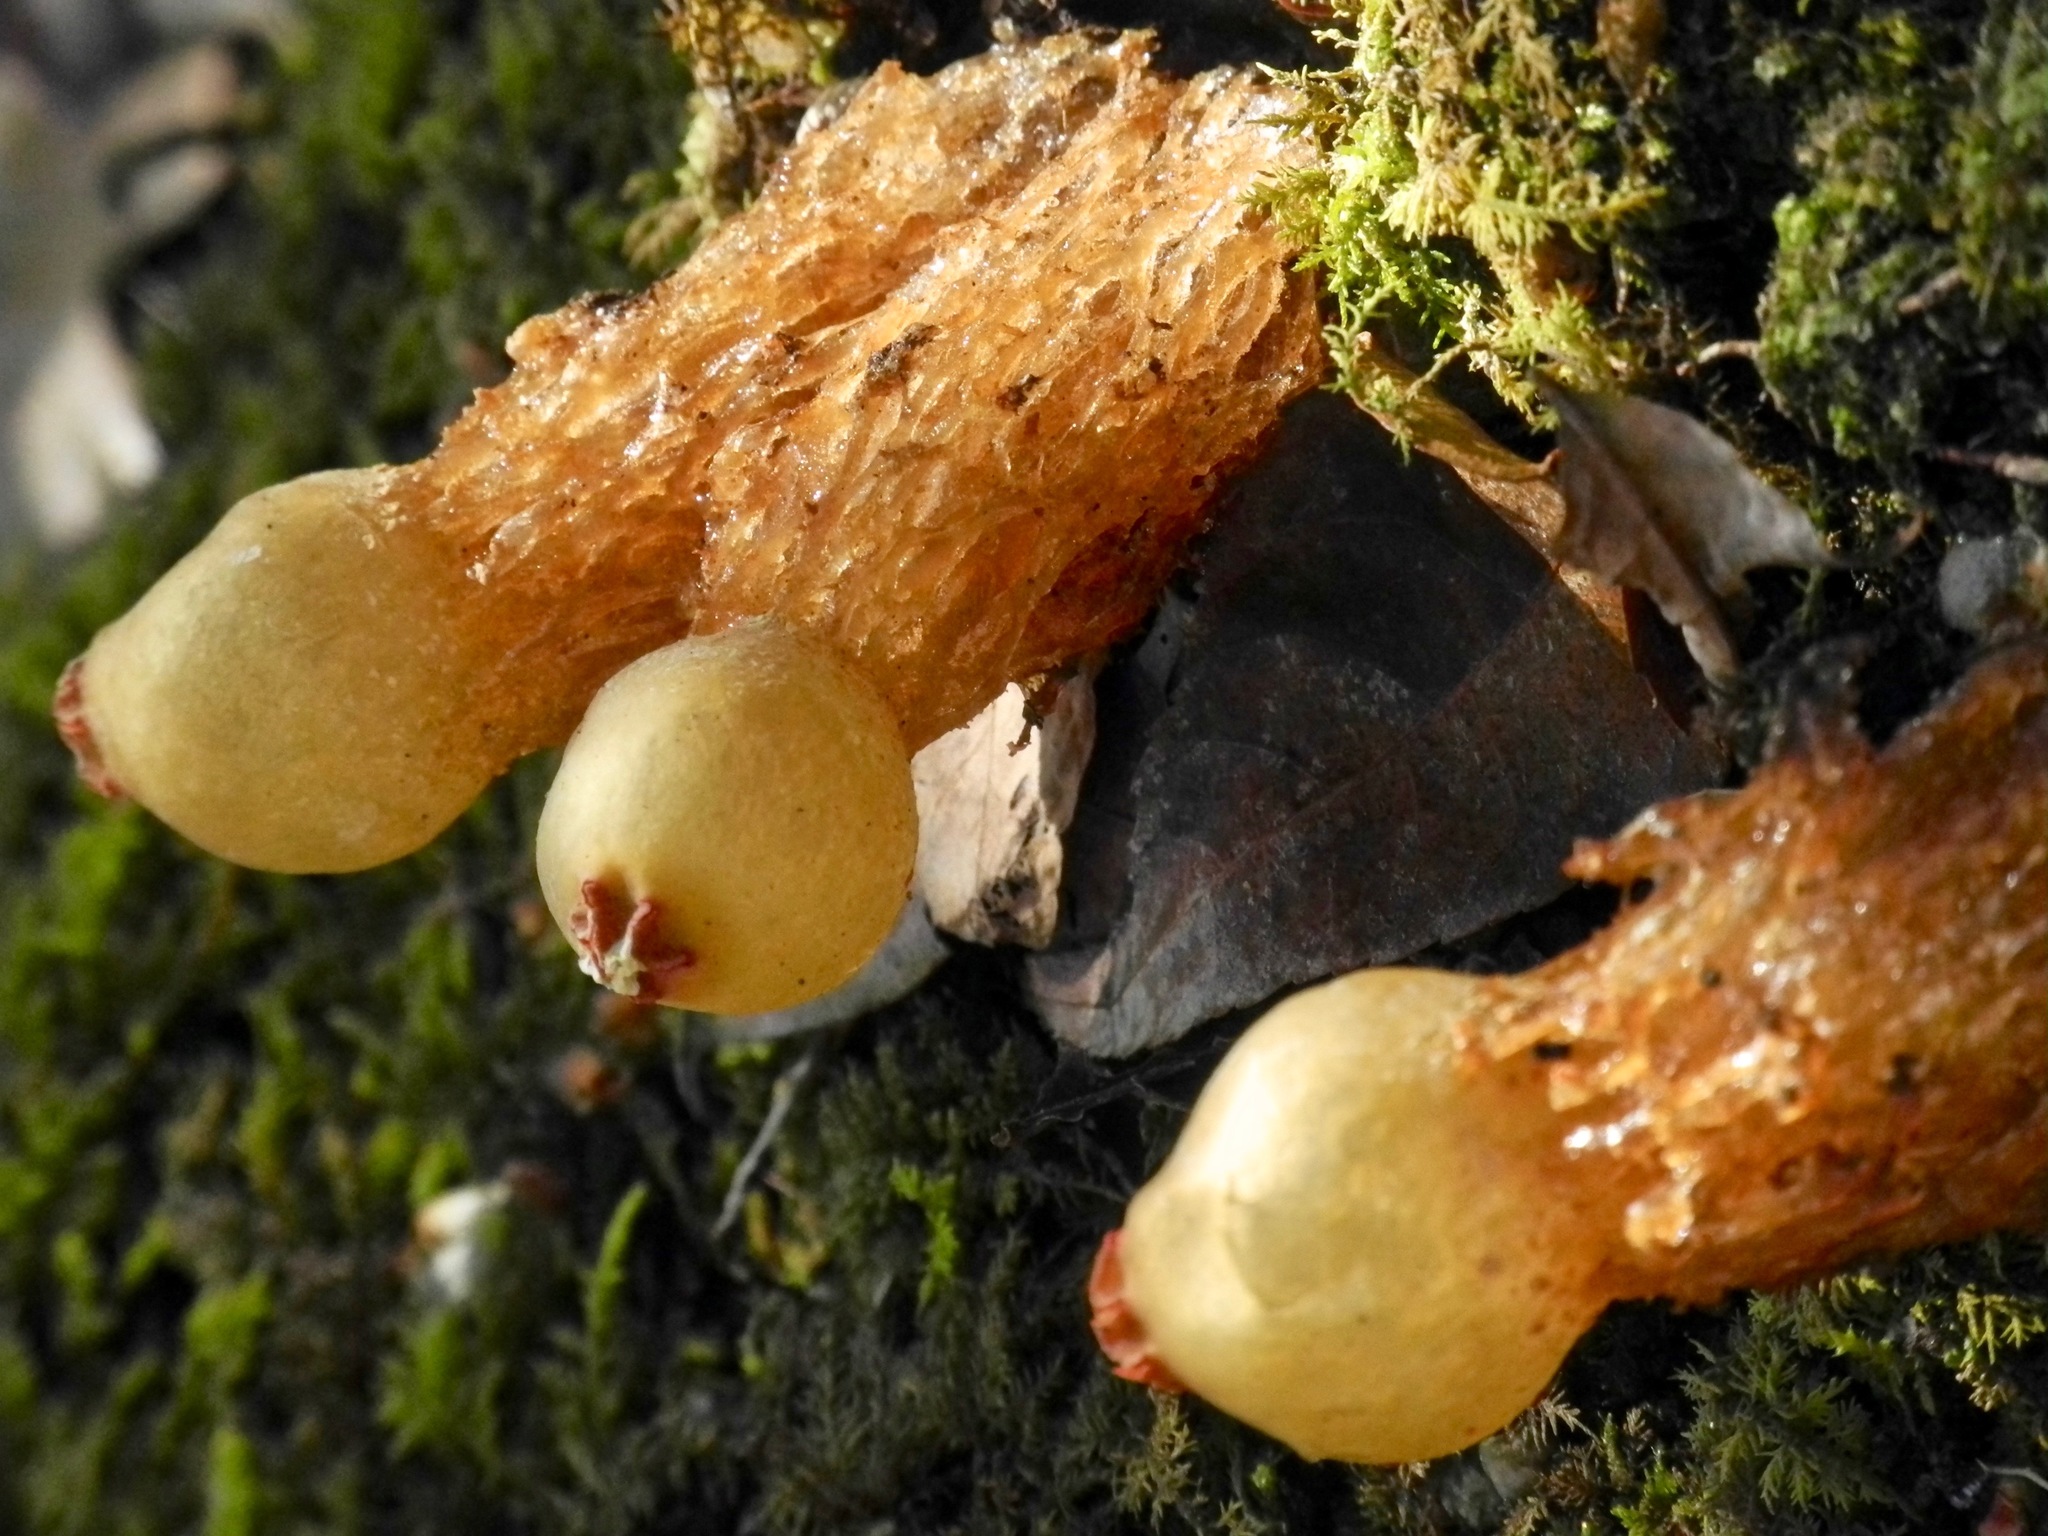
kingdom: Fungi
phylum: Basidiomycota
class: Agaricomycetes
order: Boletales
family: Calostomataceae
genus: Calostoma
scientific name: Calostoma cinnabarinum
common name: Stalked puffball-in-aspic
